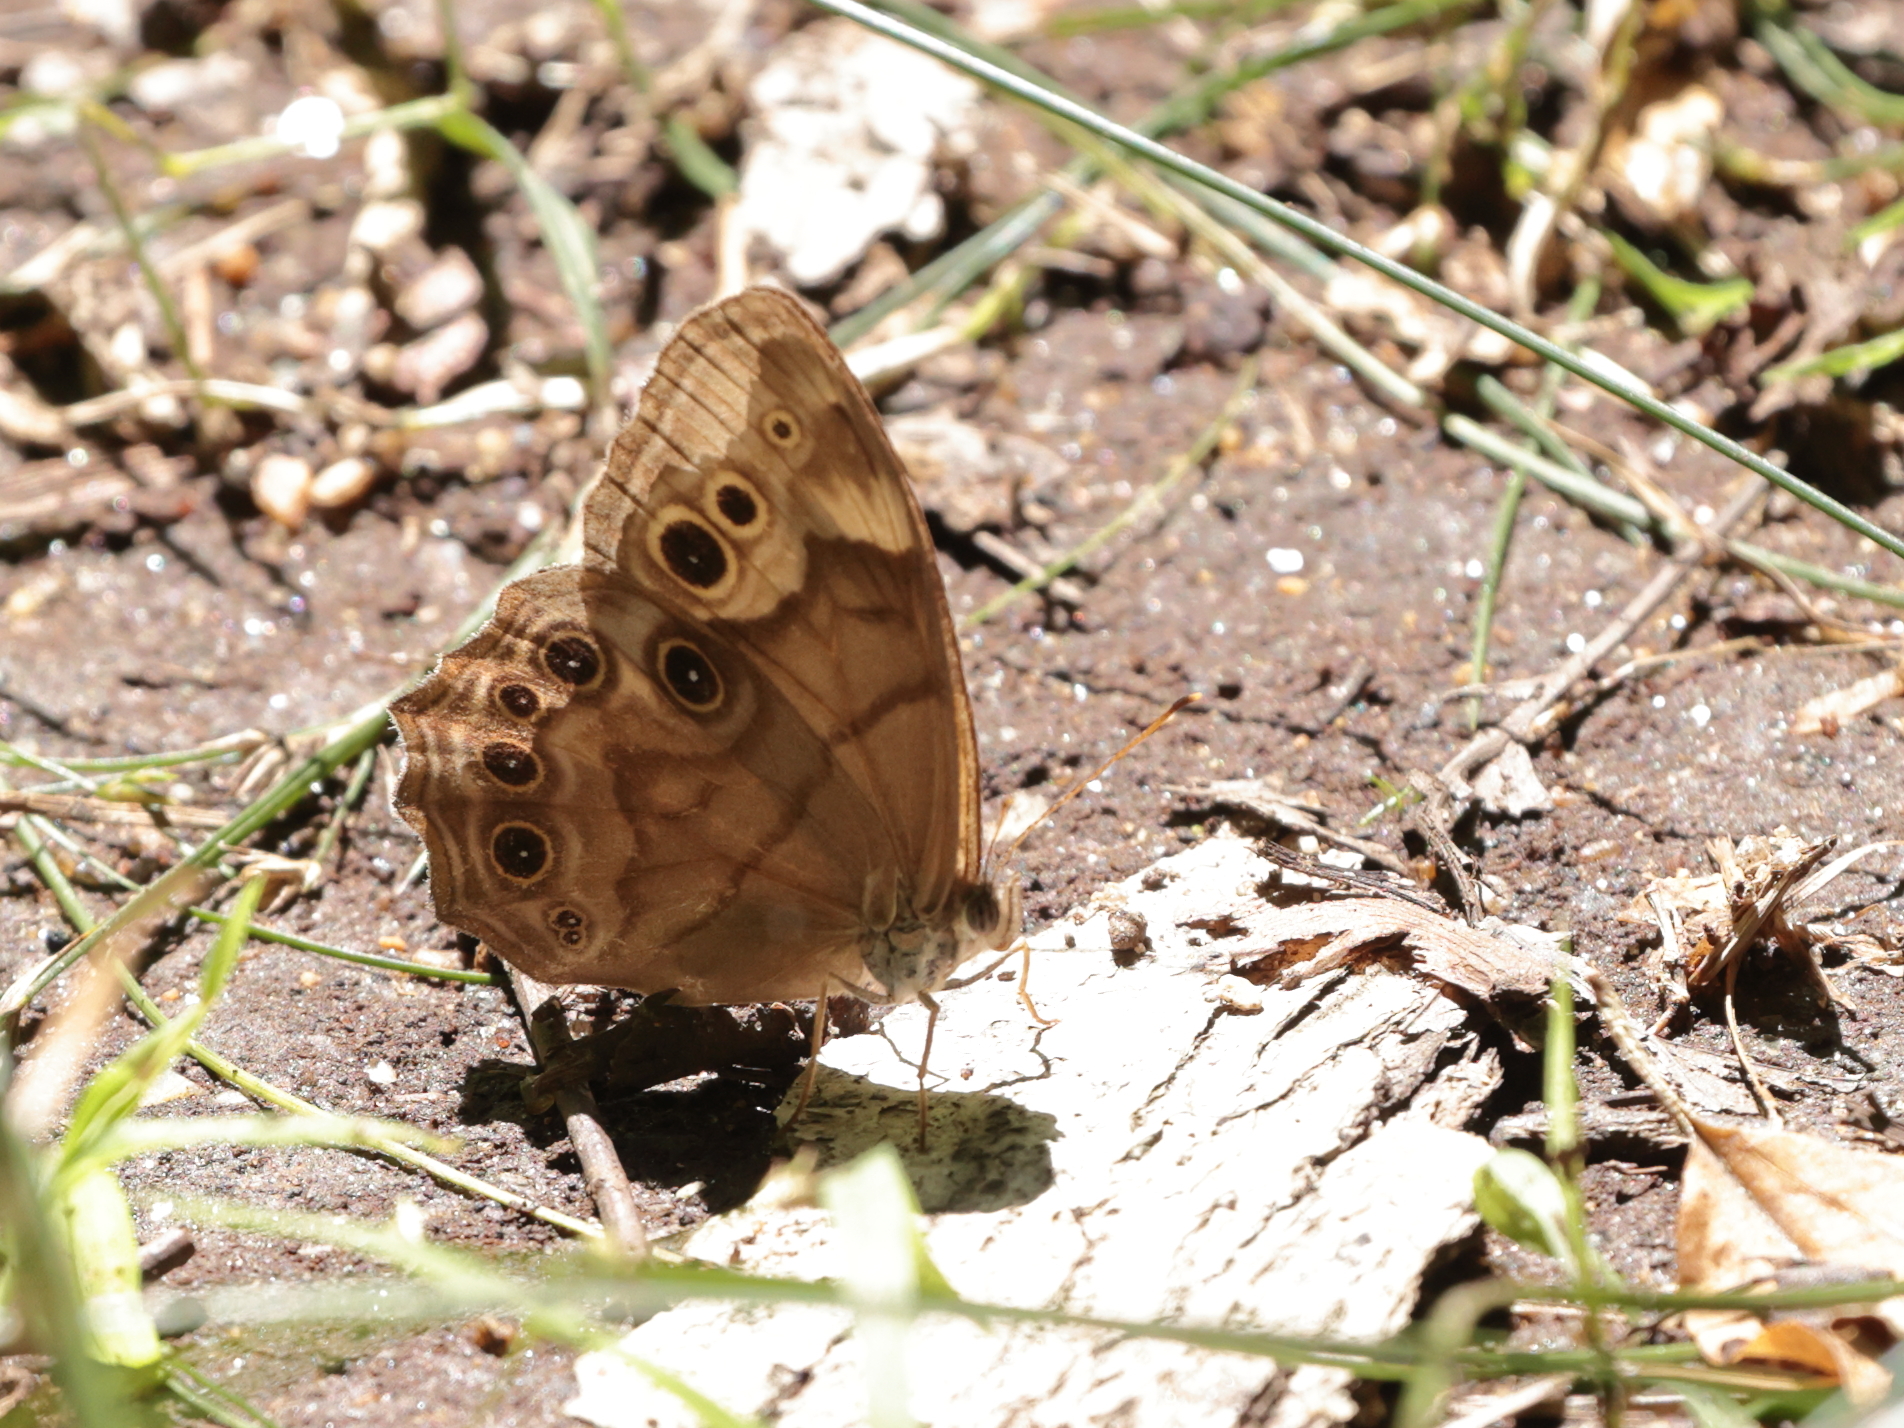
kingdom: Animalia
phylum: Arthropoda
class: Insecta
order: Lepidoptera
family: Nymphalidae
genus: Lethe
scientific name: Lethe anthedon
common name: Northern pearly-eye
